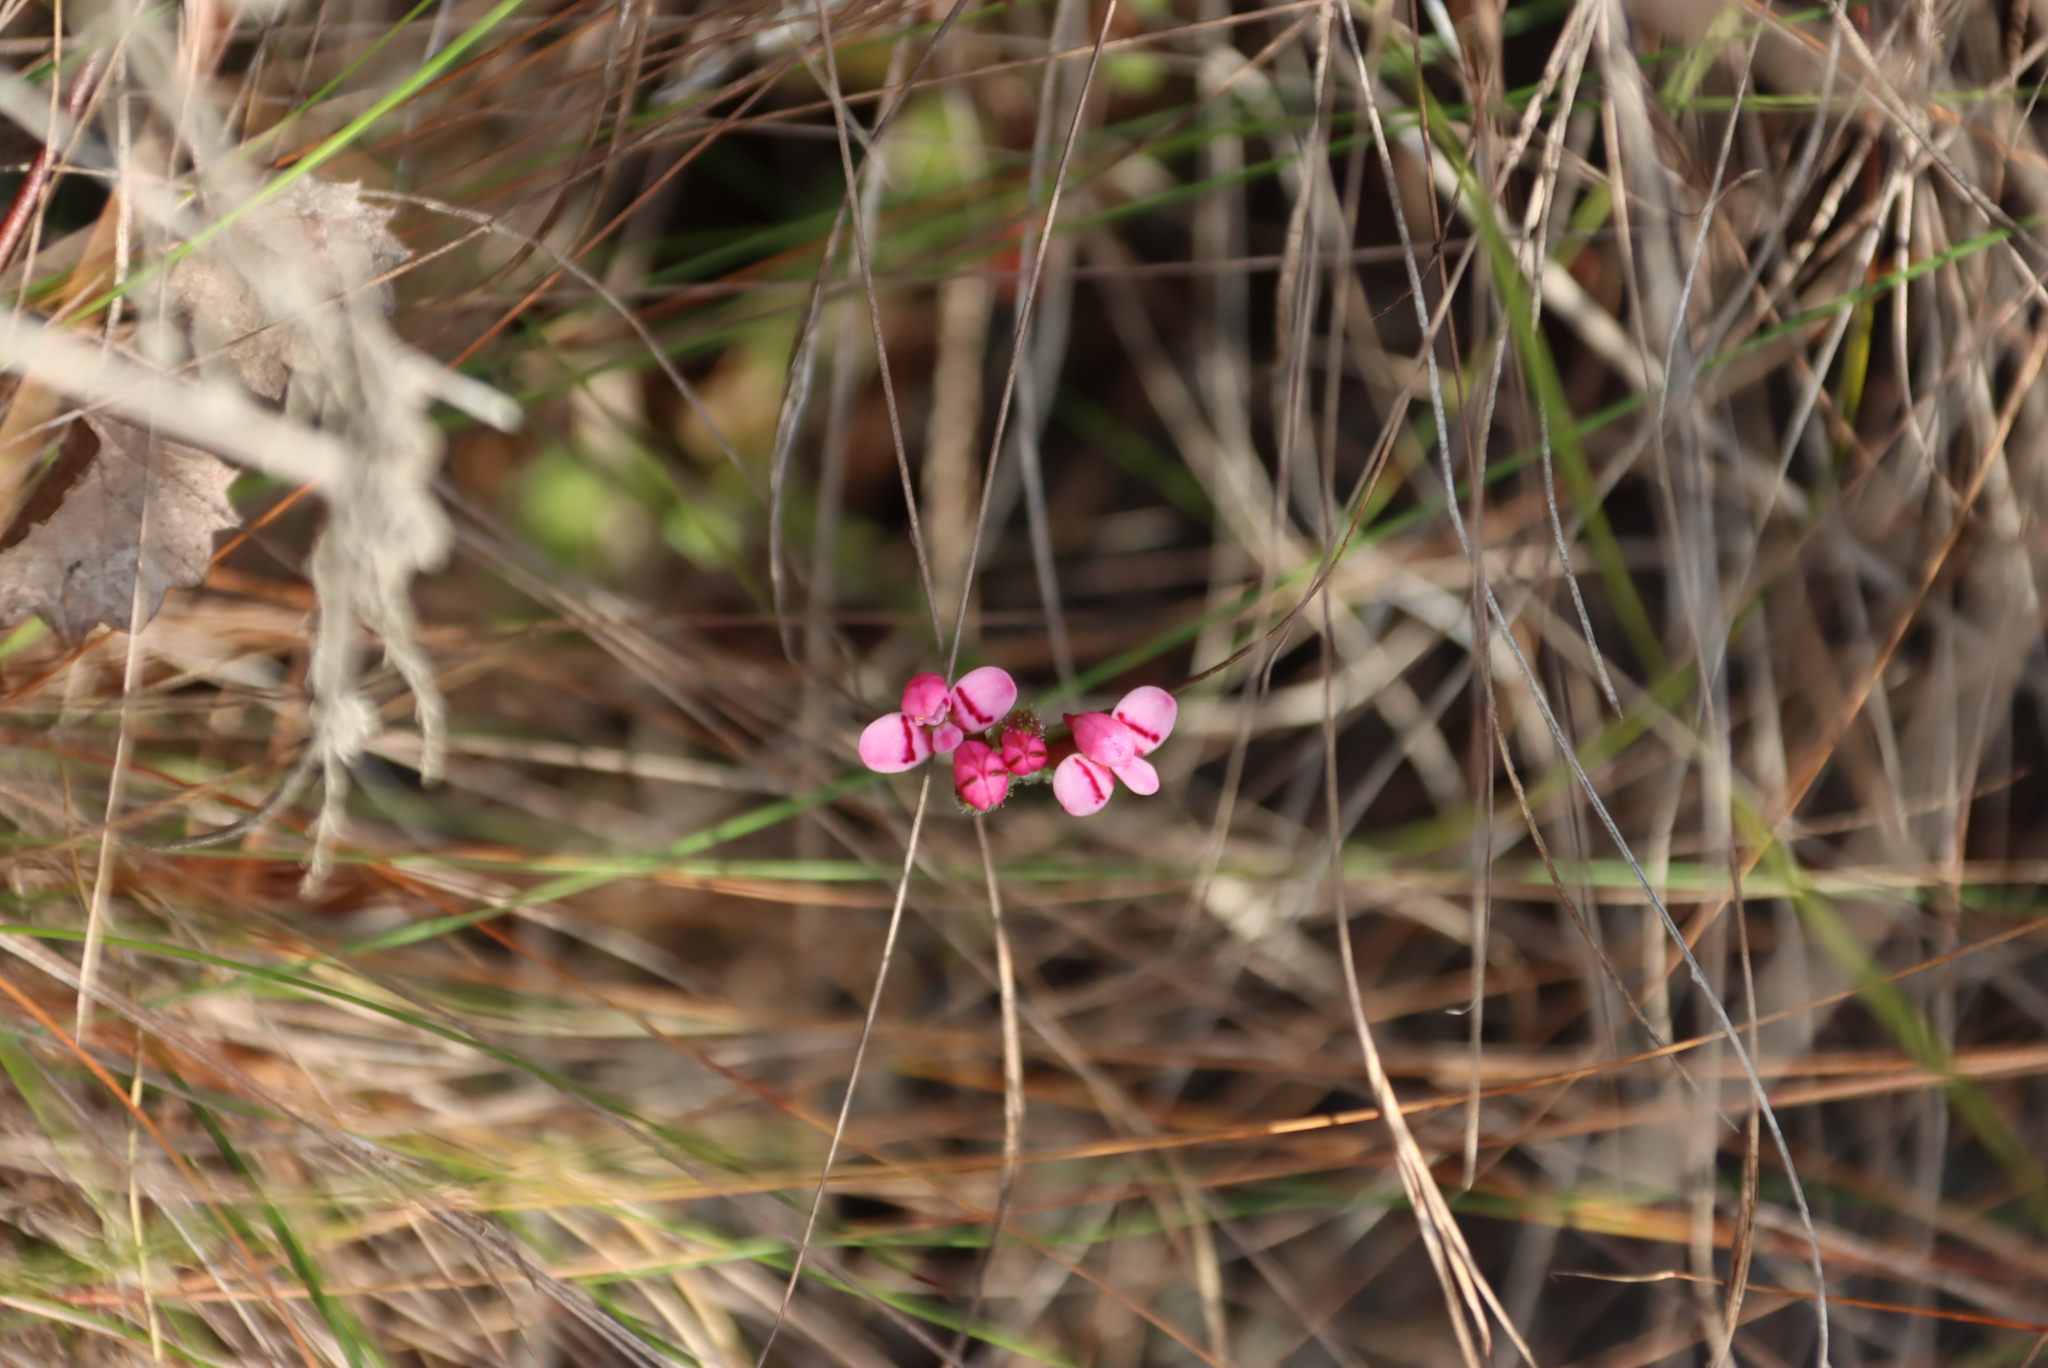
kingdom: Plantae
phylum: Tracheophyta
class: Liliopsida
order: Asparagales
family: Orchidaceae
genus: Disa
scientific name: Disa glandulosa
